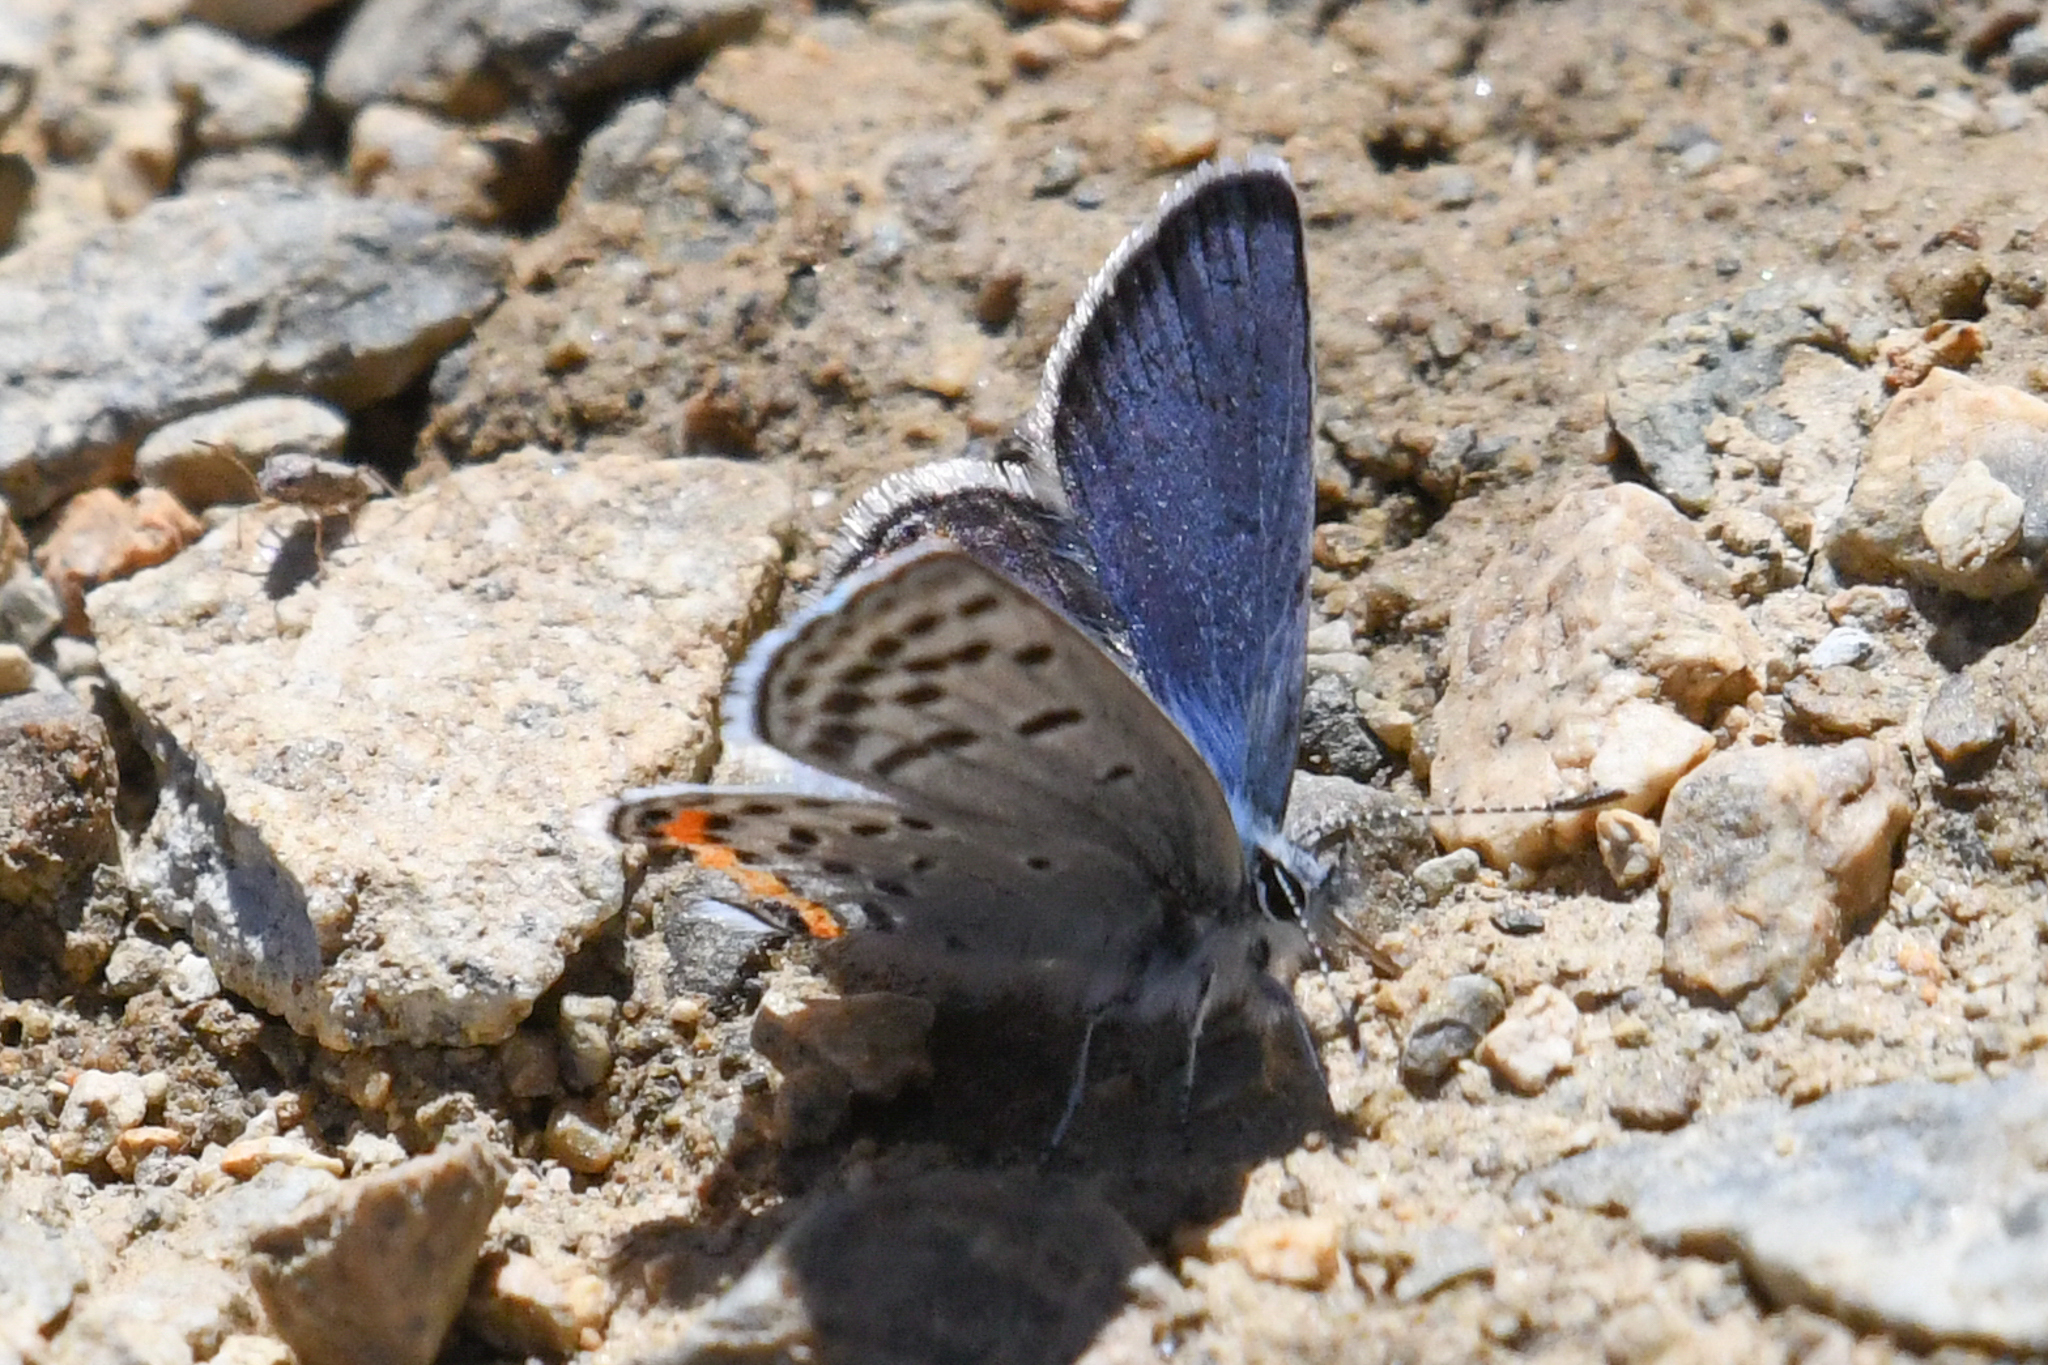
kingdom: Animalia
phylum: Arthropoda
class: Insecta
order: Lepidoptera
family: Lycaenidae
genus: Icaricia
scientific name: Icaricia lupini
